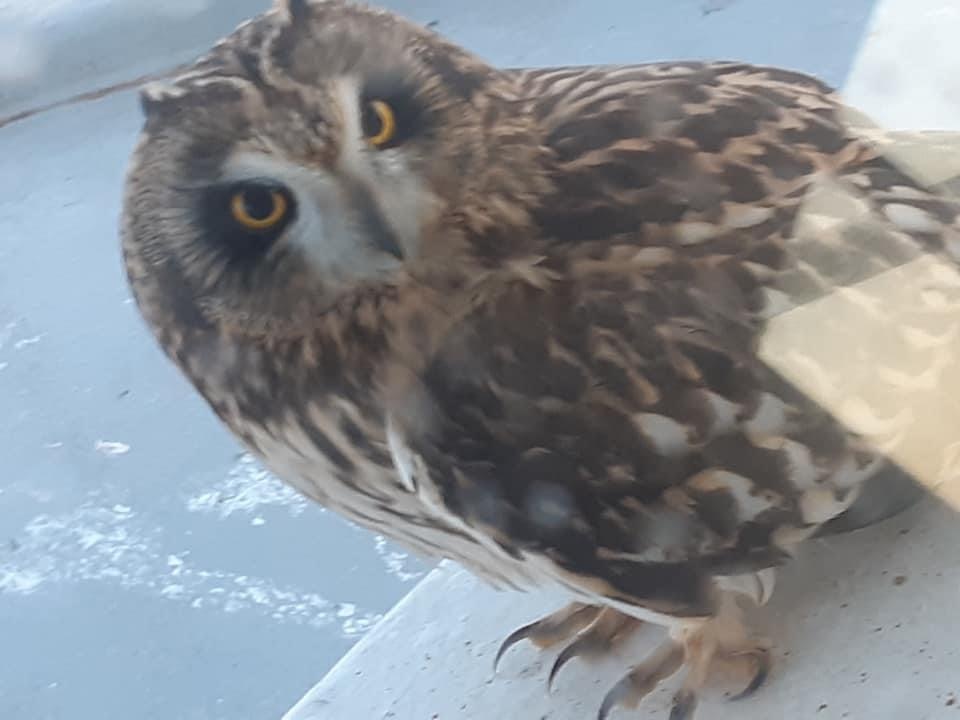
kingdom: Animalia
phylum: Chordata
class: Aves
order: Strigiformes
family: Strigidae
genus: Asio
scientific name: Asio flammeus
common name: Short-eared owl
